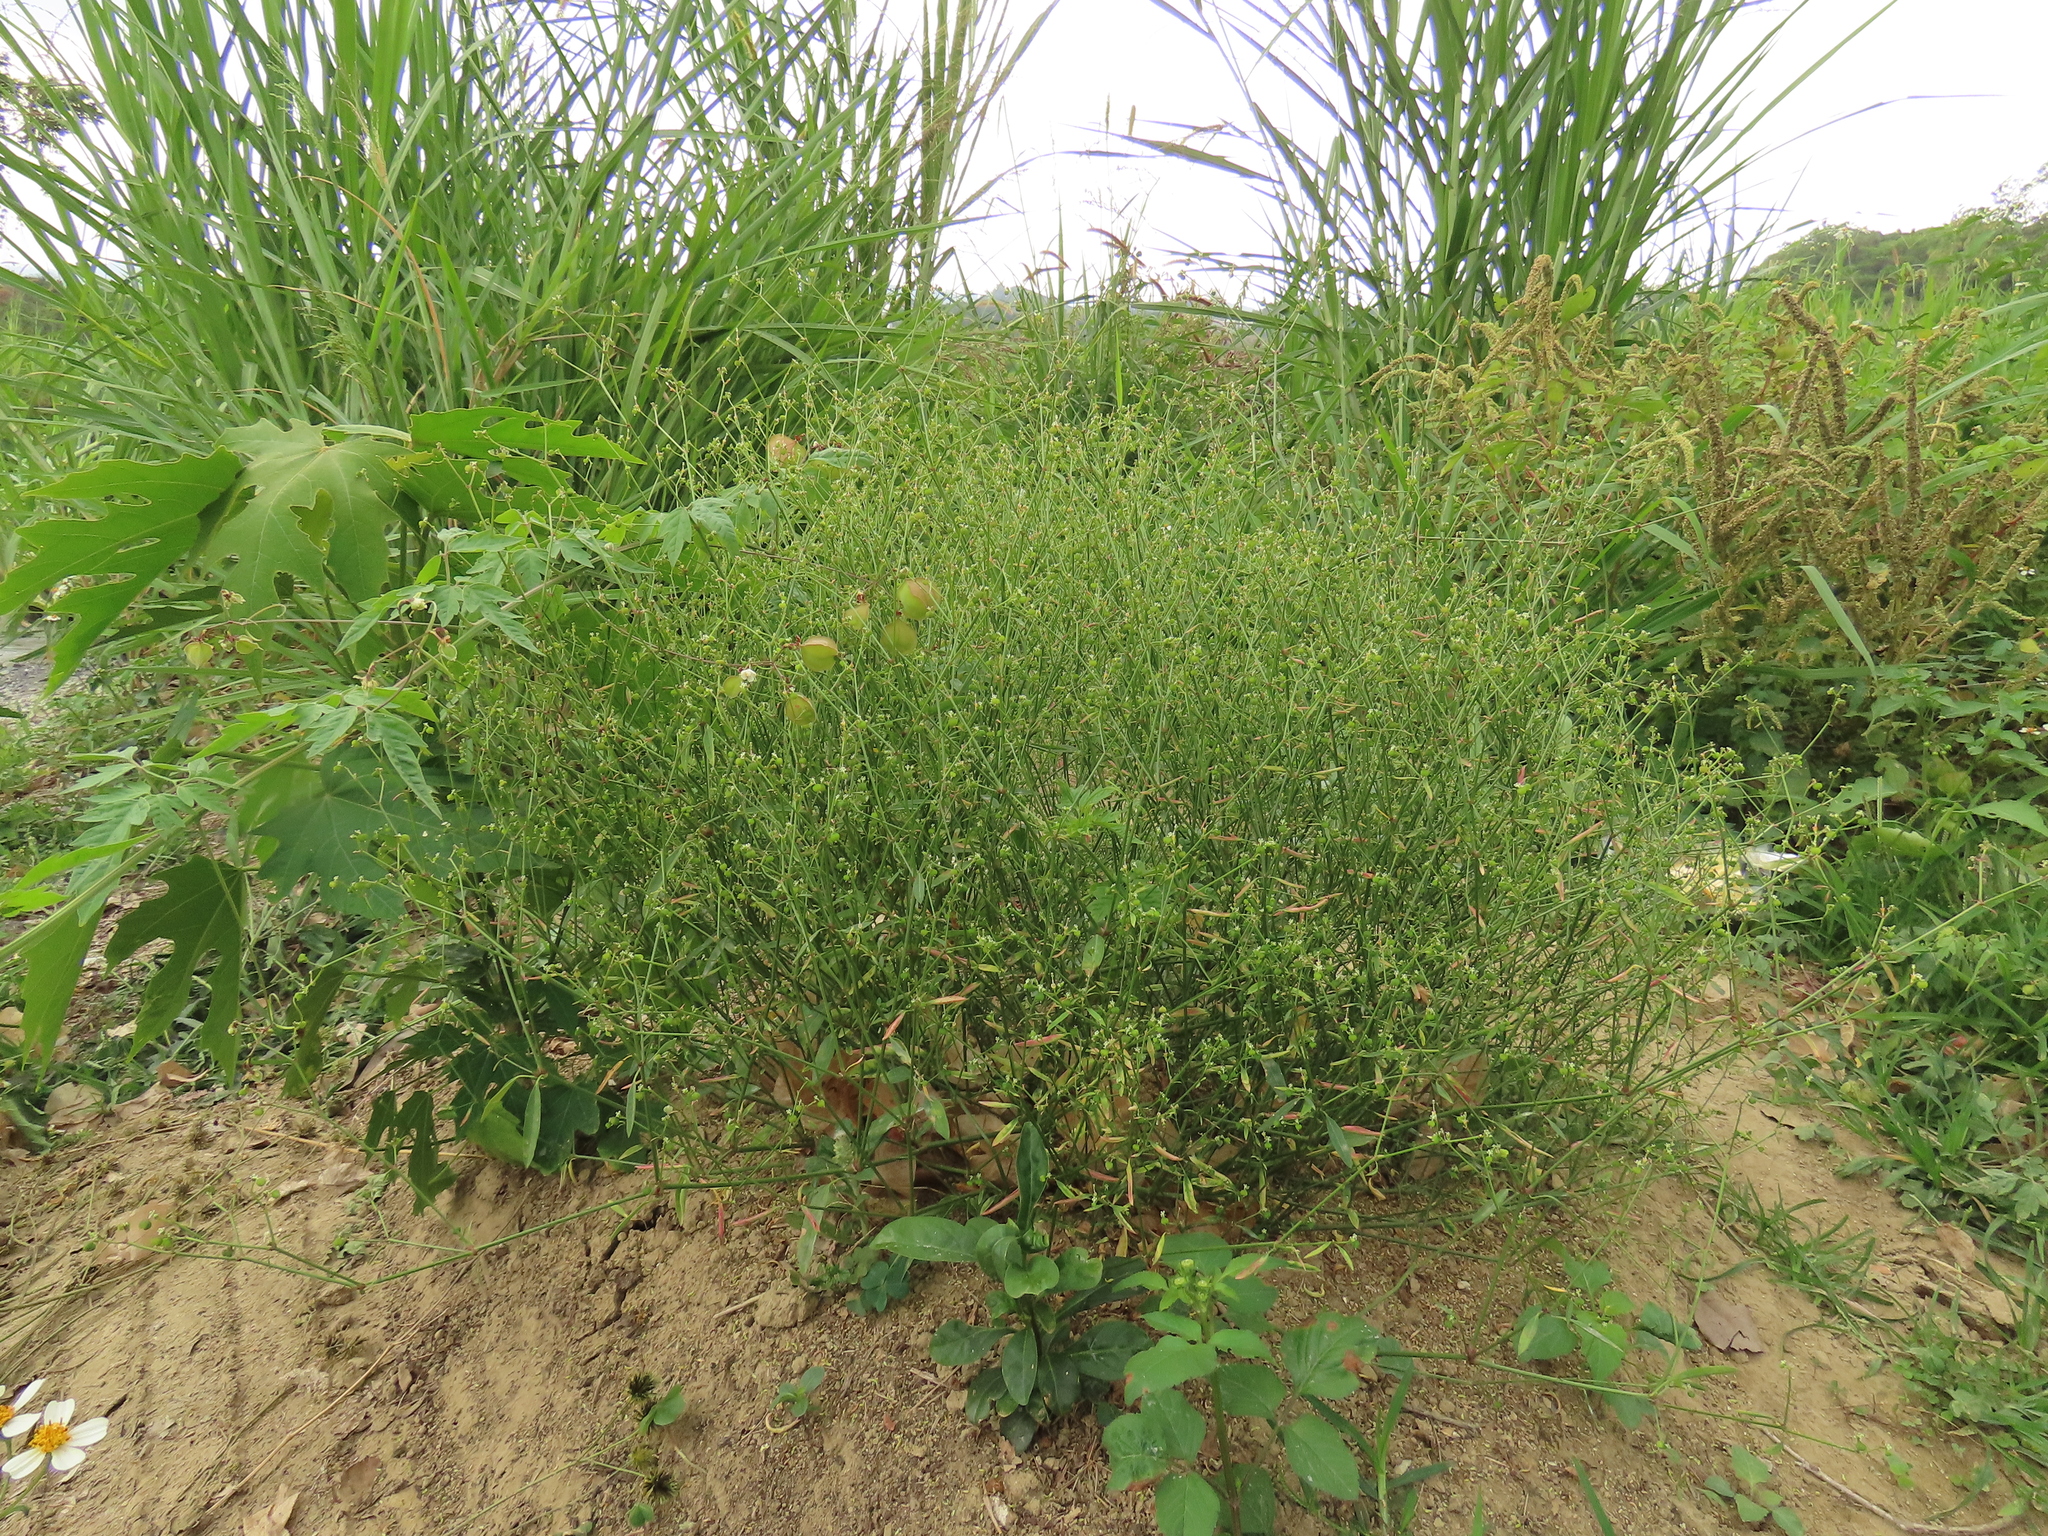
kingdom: Plantae
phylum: Tracheophyta
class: Magnoliopsida
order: Malpighiales
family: Euphorbiaceae
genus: Euphorbia
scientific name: Euphorbia graminea
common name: Grassleaf spurge
